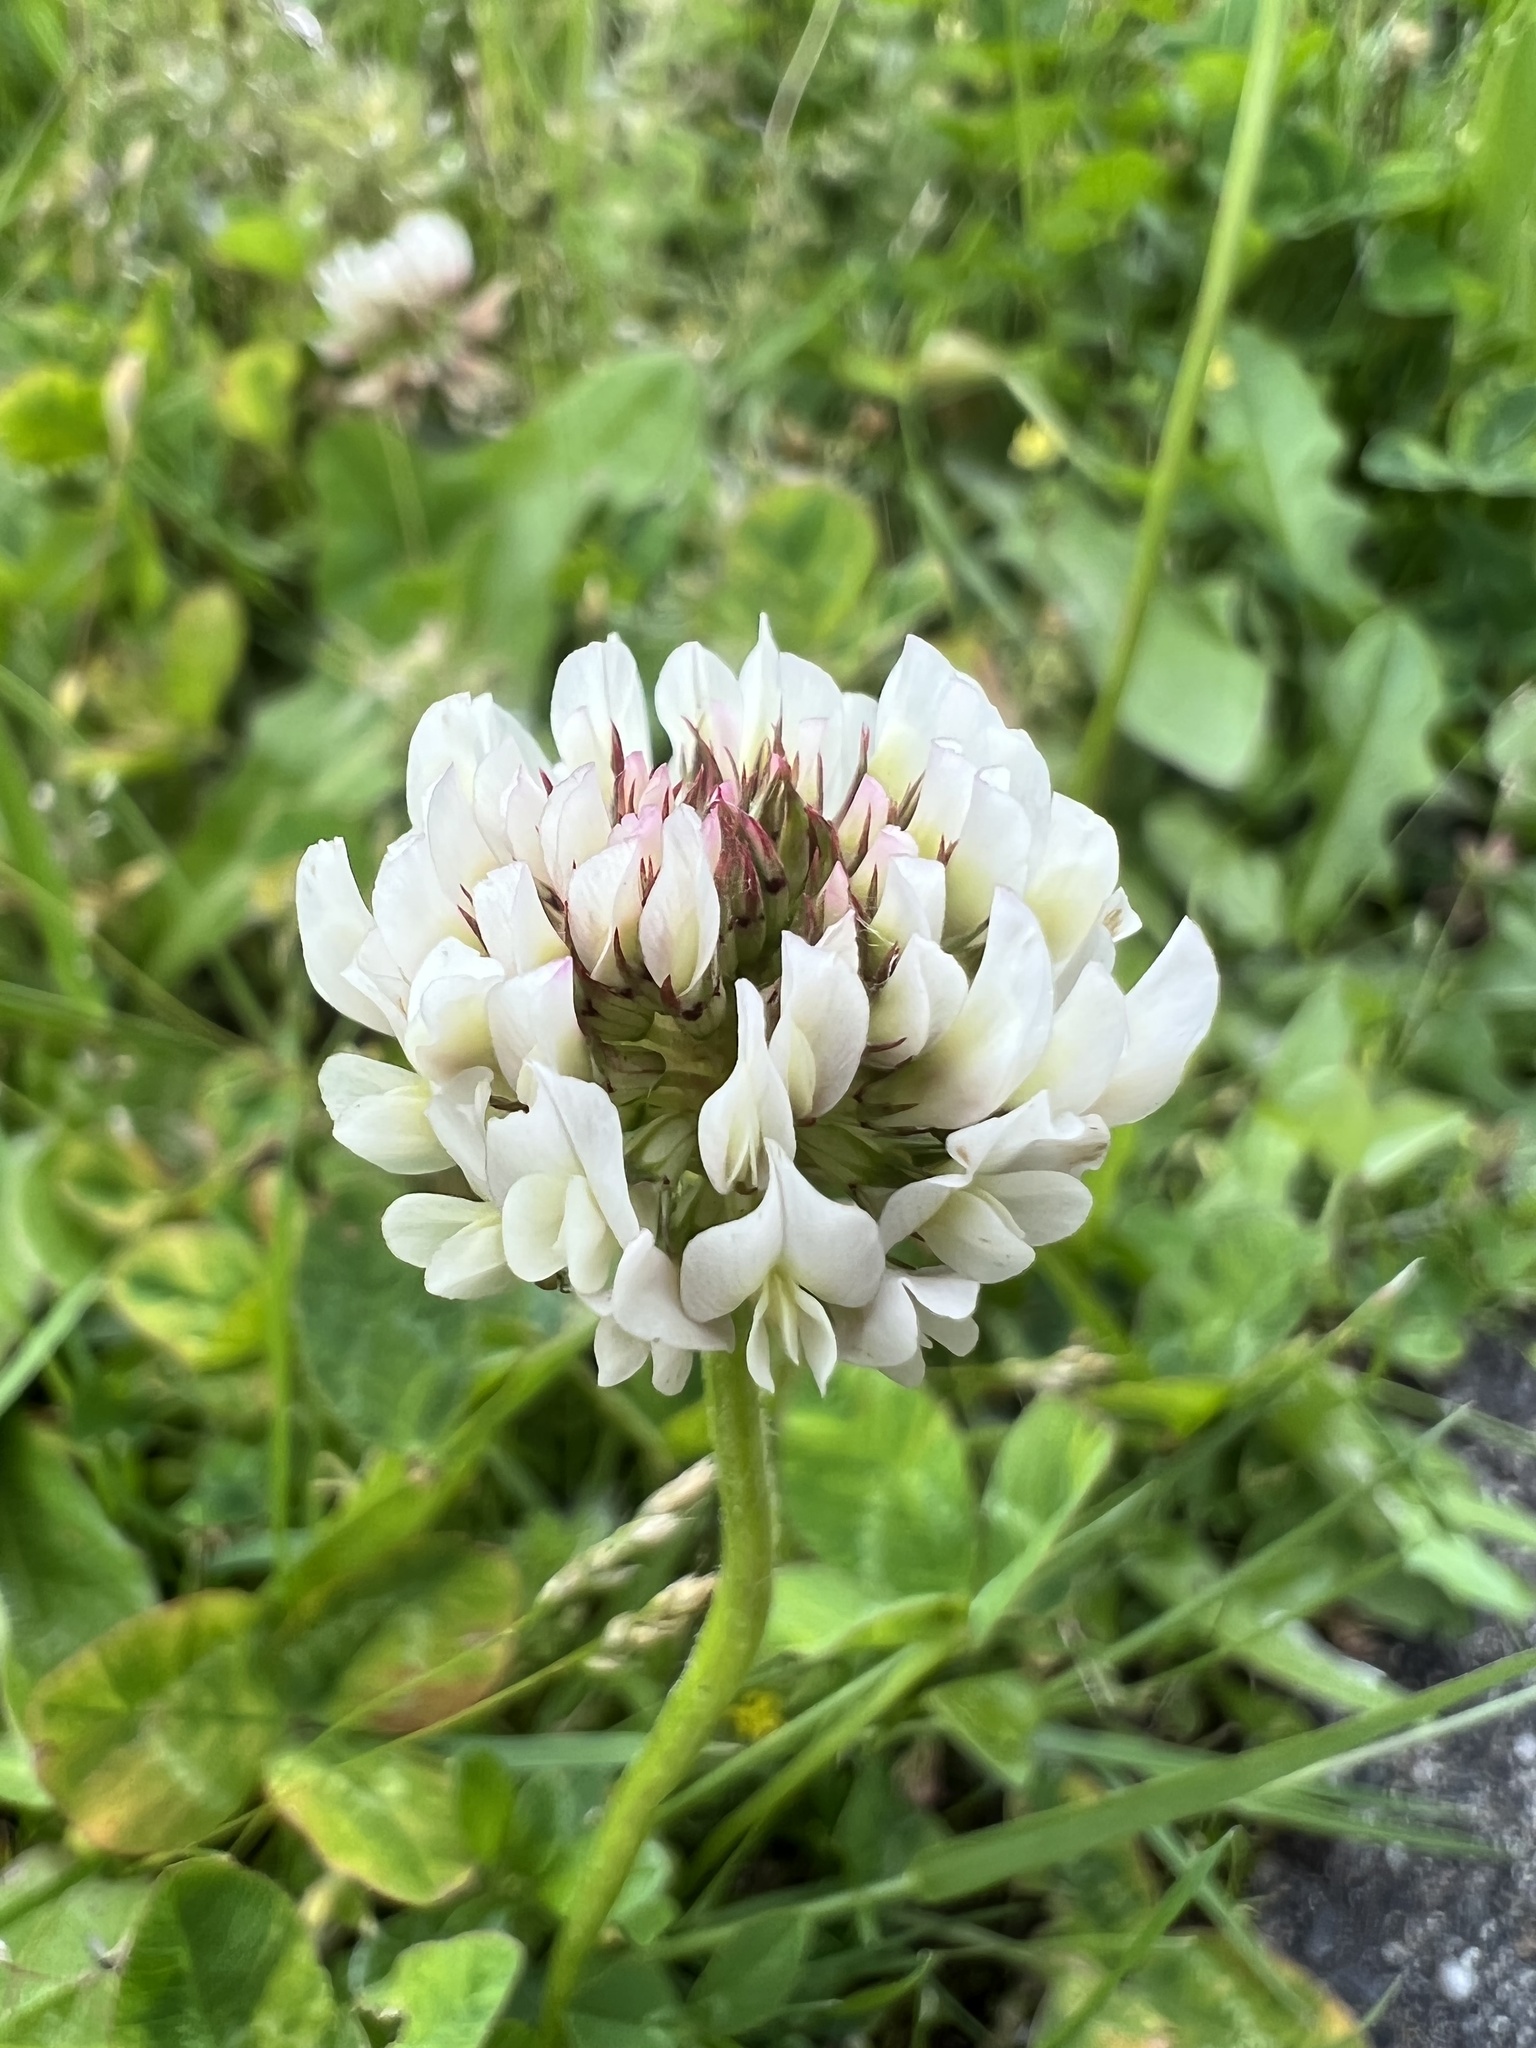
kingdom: Plantae
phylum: Tracheophyta
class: Magnoliopsida
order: Fabales
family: Fabaceae
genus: Trifolium
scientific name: Trifolium repens
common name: White clover
